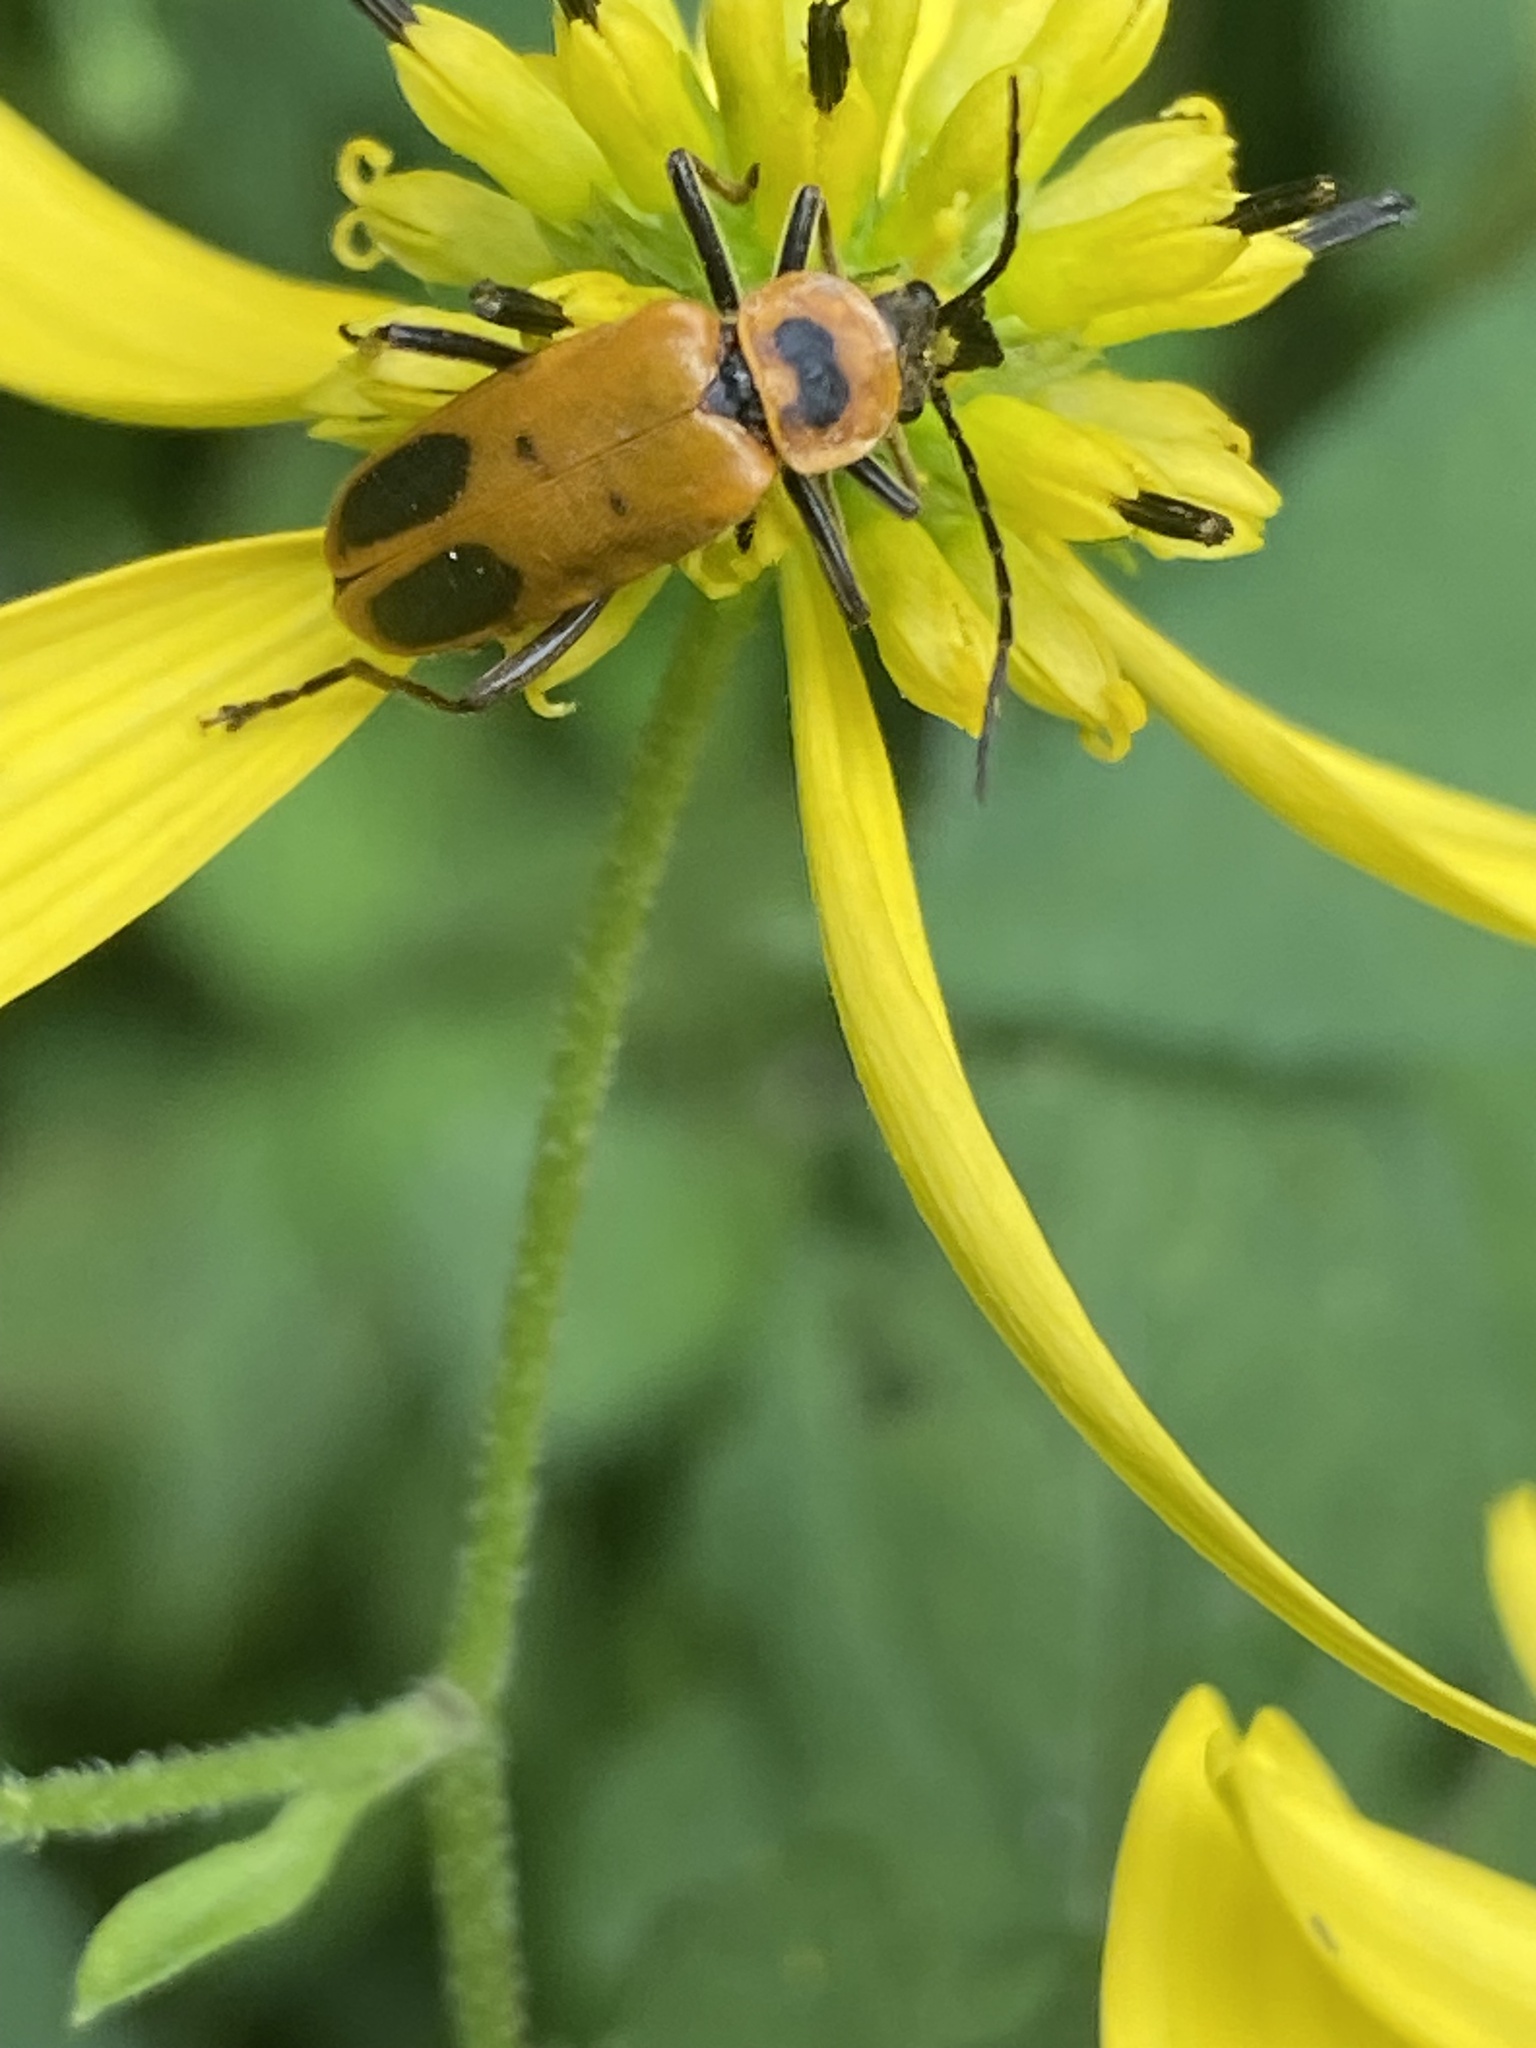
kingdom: Animalia
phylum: Arthropoda
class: Insecta
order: Coleoptera
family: Cantharidae
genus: Chauliognathus
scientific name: Chauliognathus pensylvanicus
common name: Goldenrod soldier beetle
